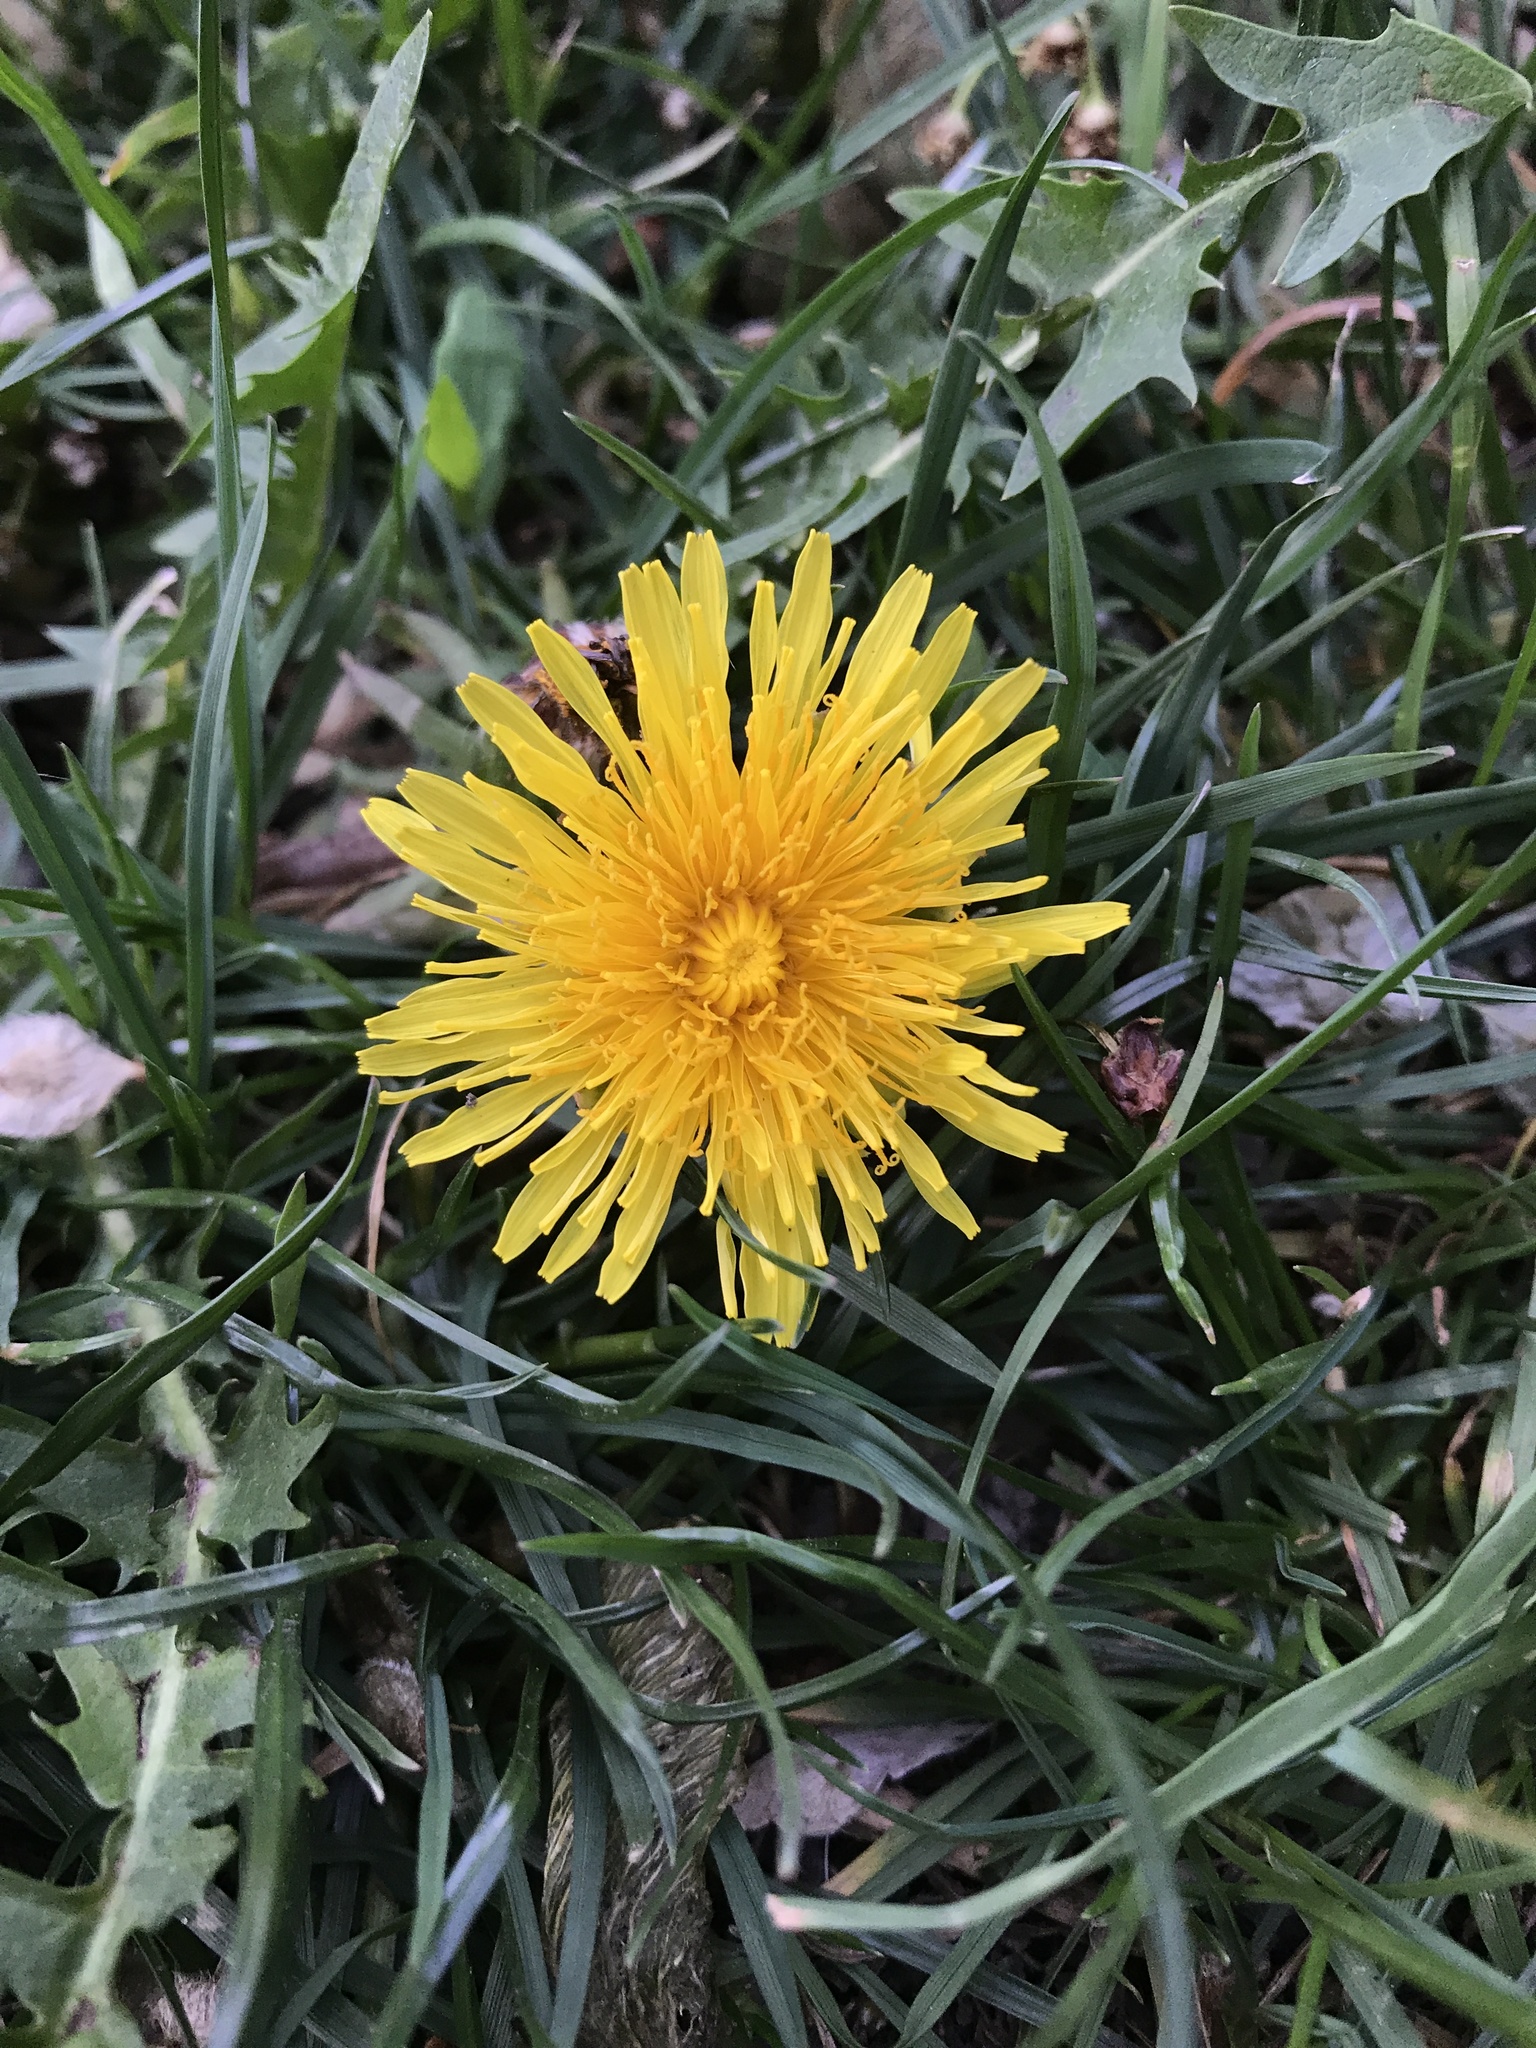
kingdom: Plantae
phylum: Tracheophyta
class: Magnoliopsida
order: Asterales
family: Asteraceae
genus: Taraxacum
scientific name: Taraxacum officinale
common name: Common dandelion
